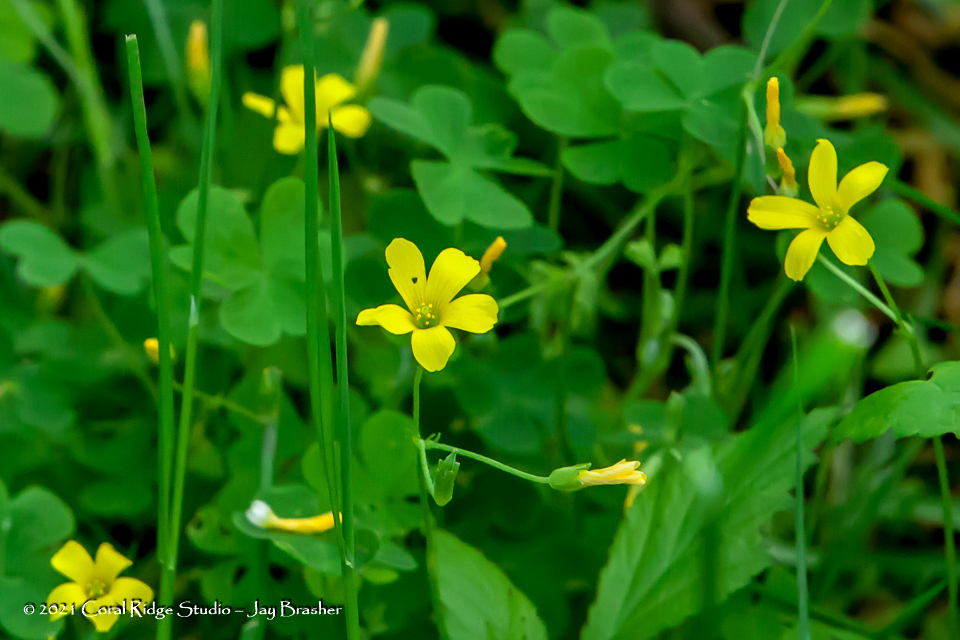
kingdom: Plantae
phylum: Tracheophyta
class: Magnoliopsida
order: Oxalidales
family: Oxalidaceae
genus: Oxalis
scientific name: Oxalis stricta
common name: Upright yellow-sorrel
